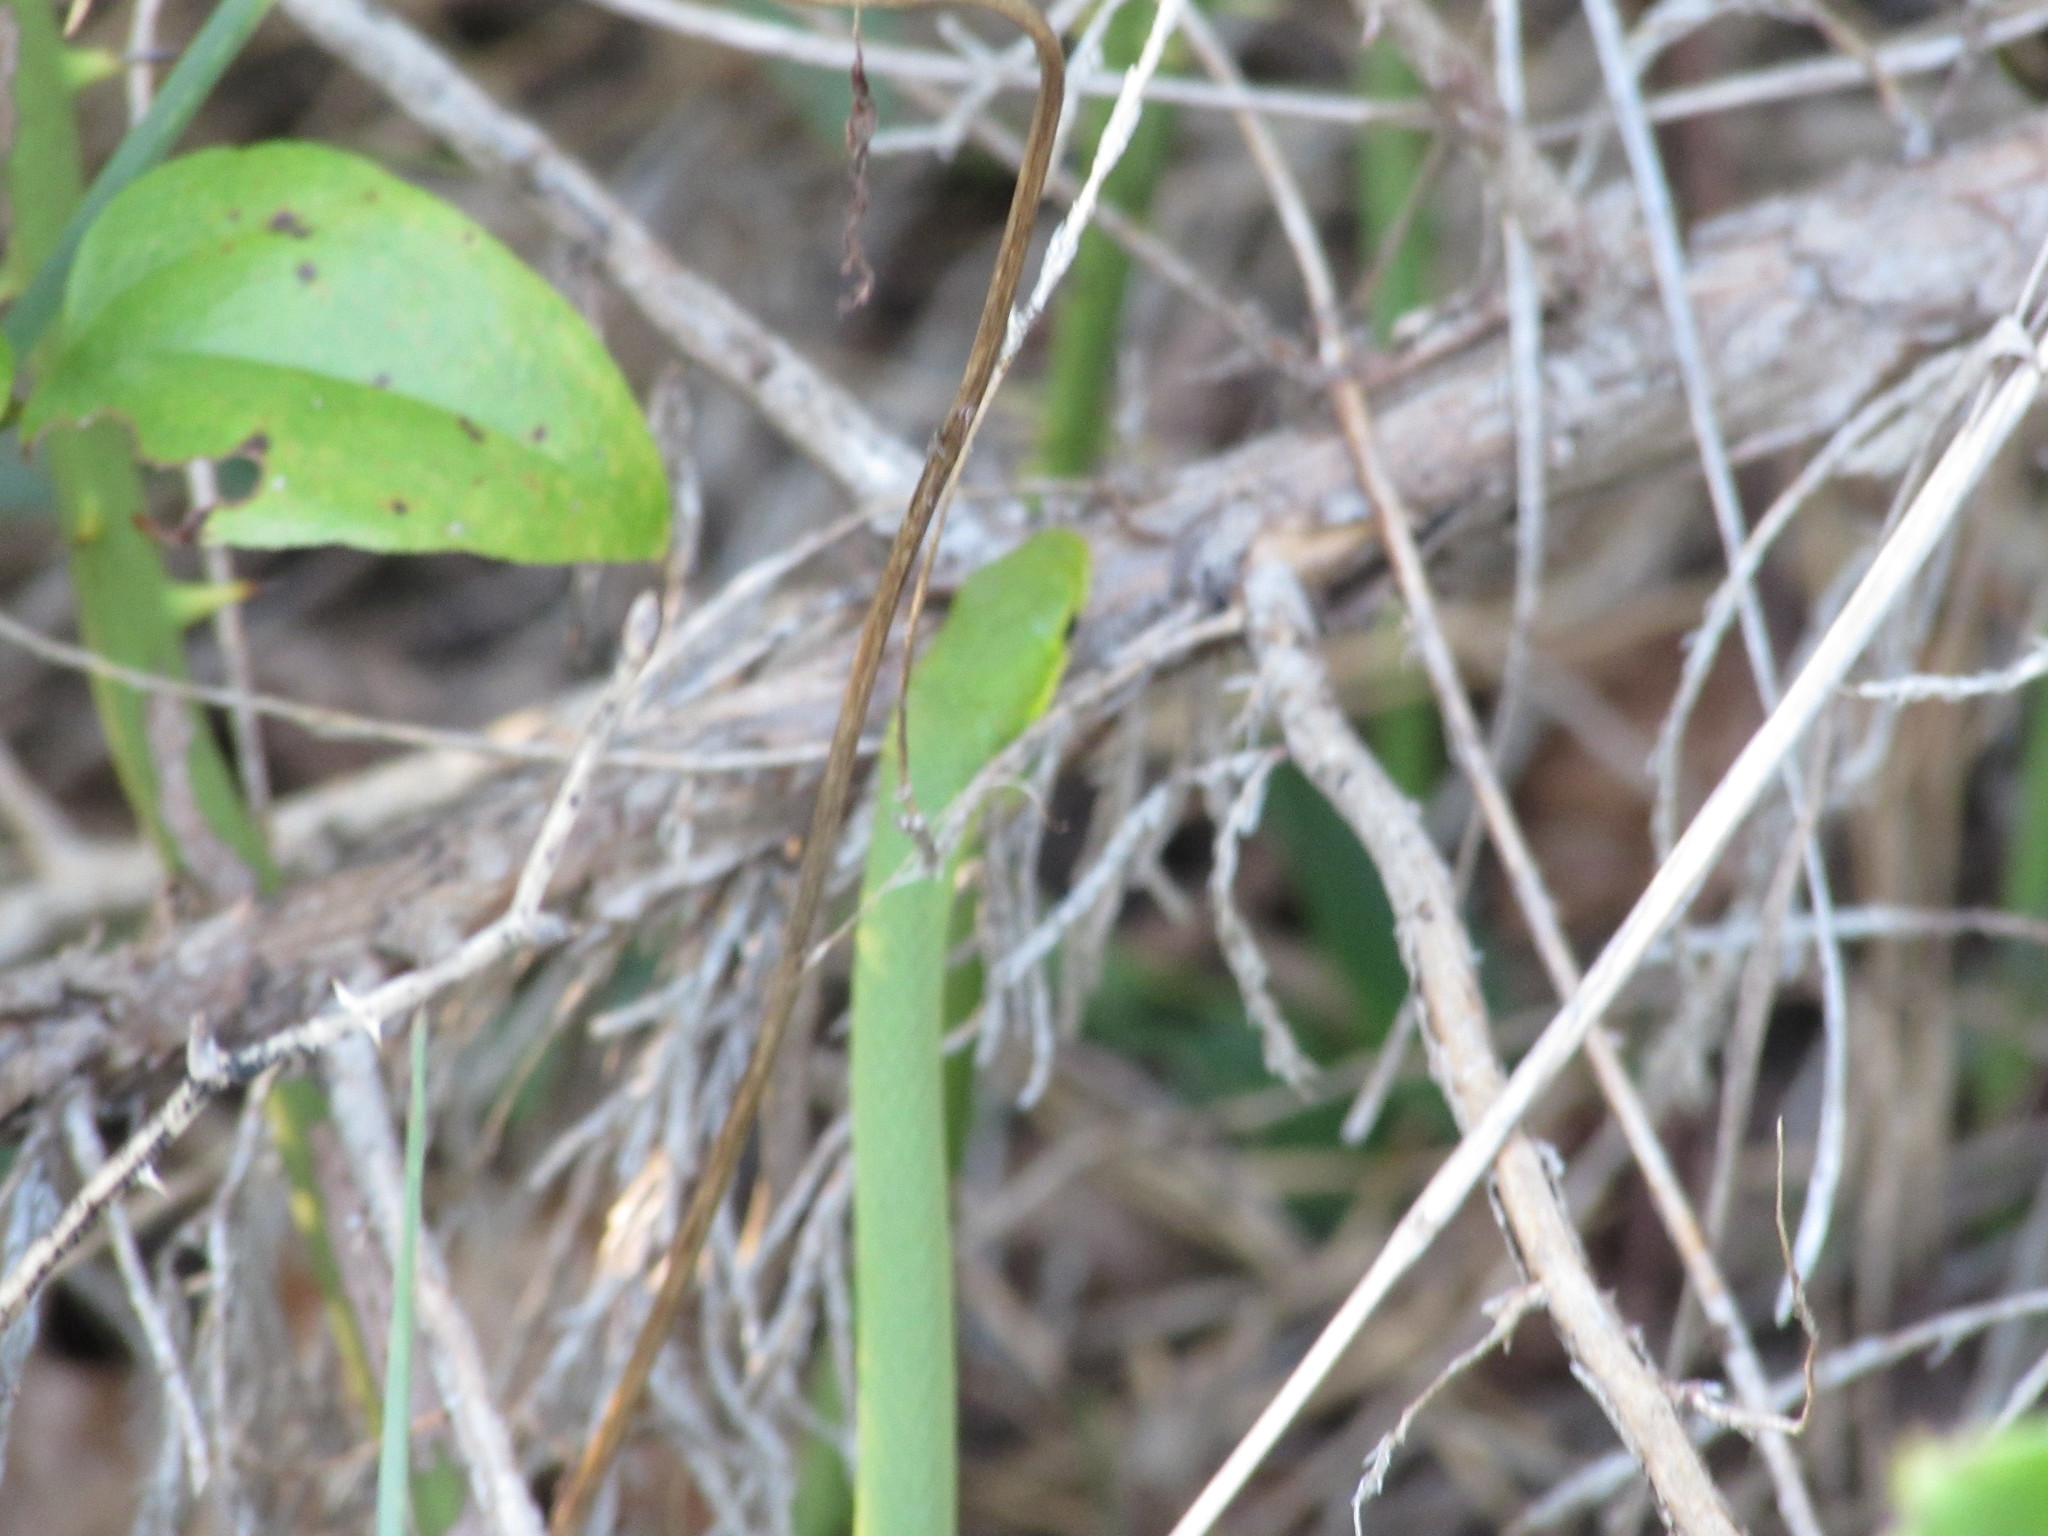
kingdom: Animalia
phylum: Chordata
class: Squamata
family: Colubridae
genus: Opheodrys
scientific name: Opheodrys aestivus
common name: Rough greensnake
